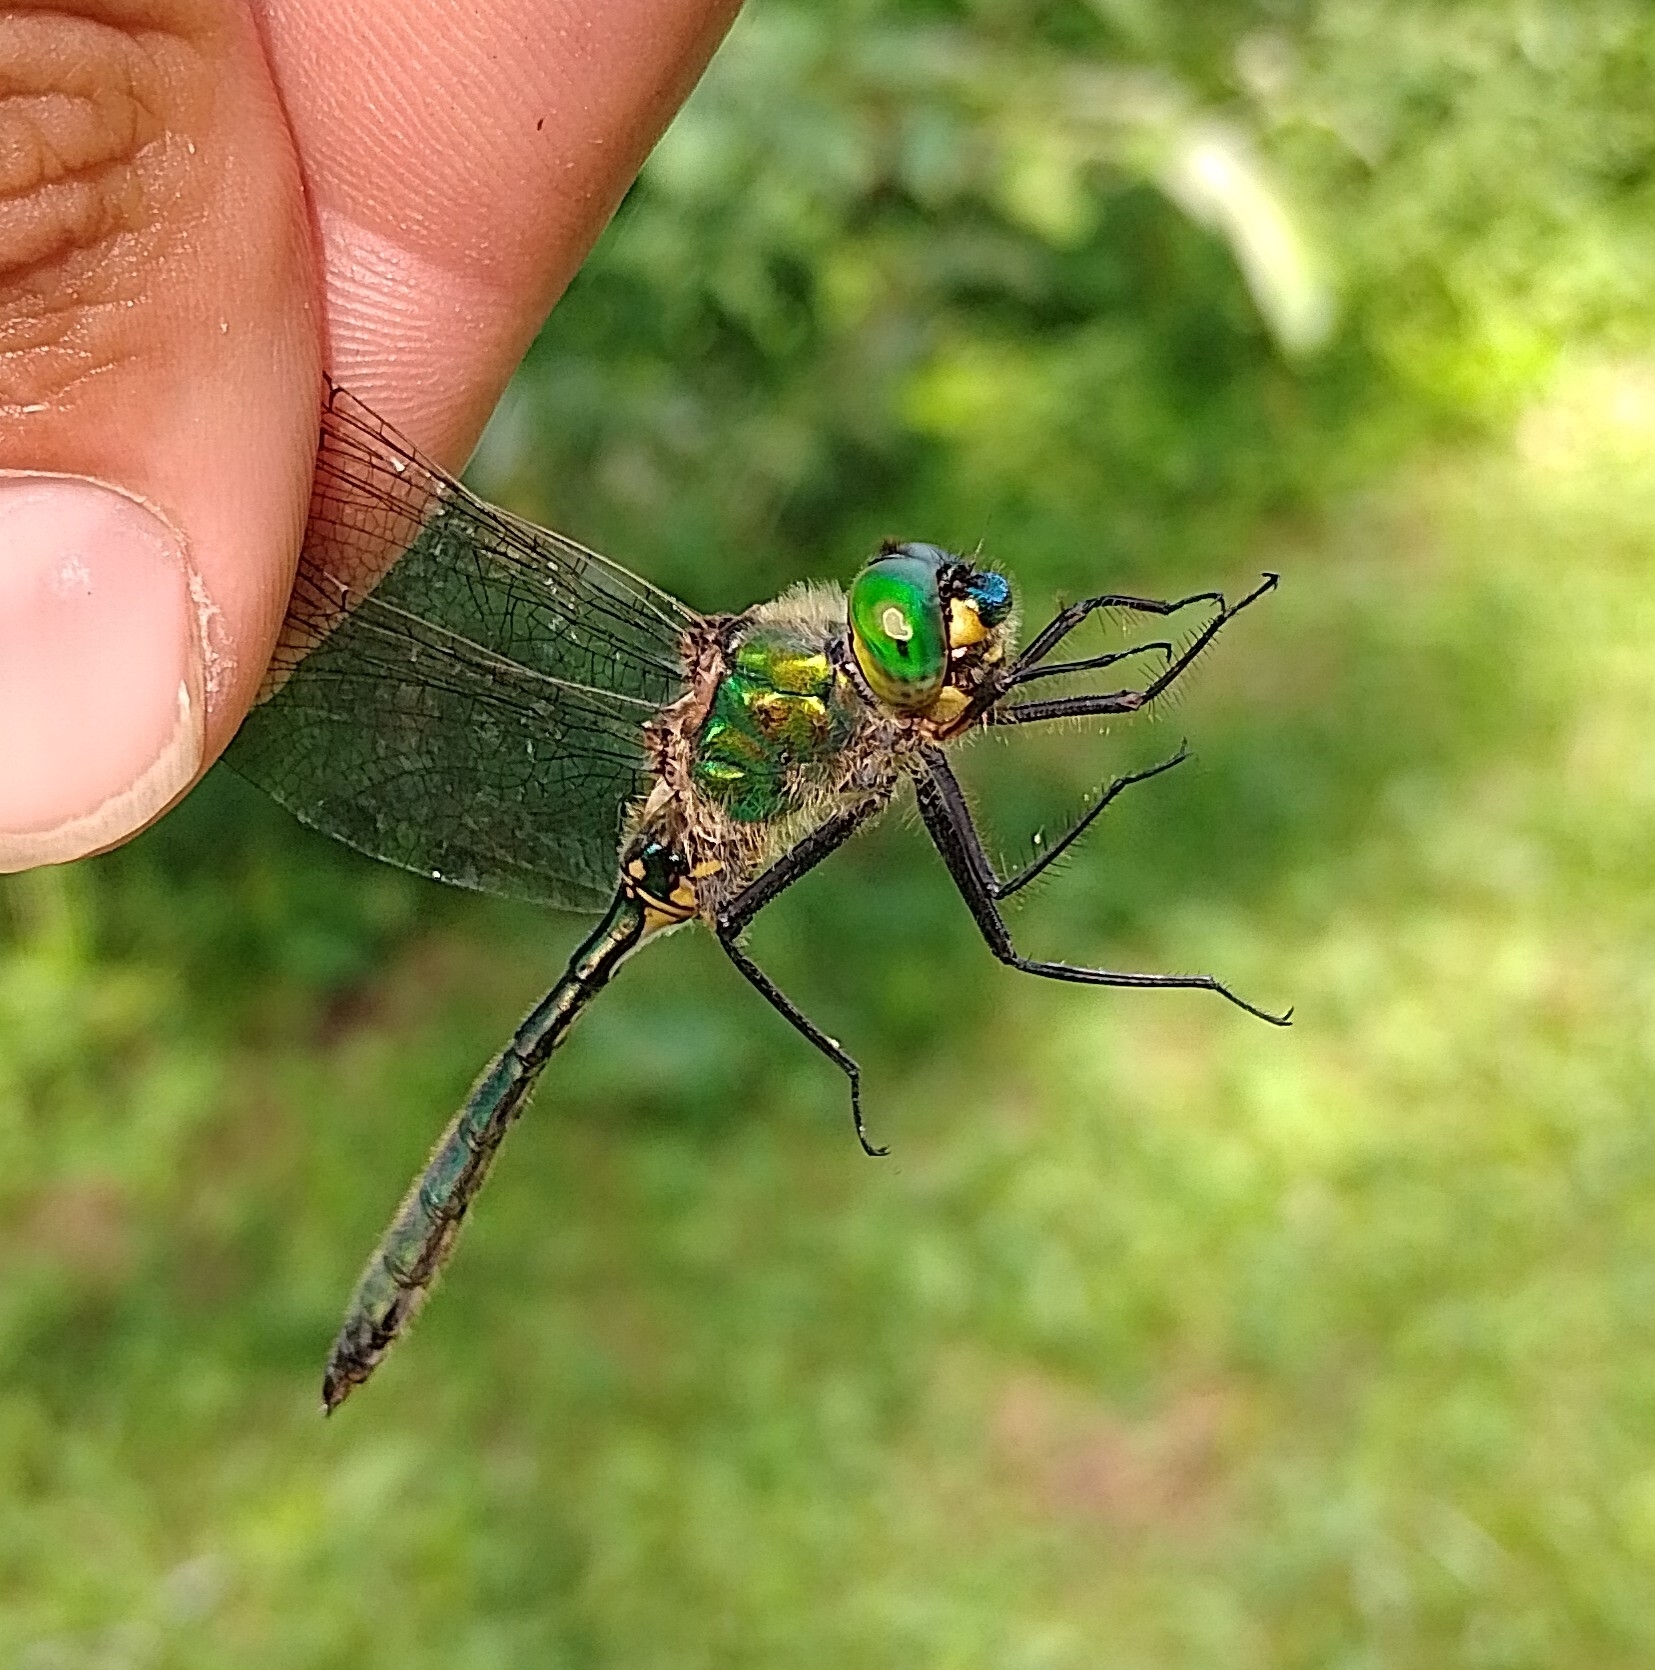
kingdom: Animalia
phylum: Arthropoda
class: Insecta
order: Odonata
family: Corduliidae
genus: Somatochlora
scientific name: Somatochlora metallica
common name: Brilliant emerald
